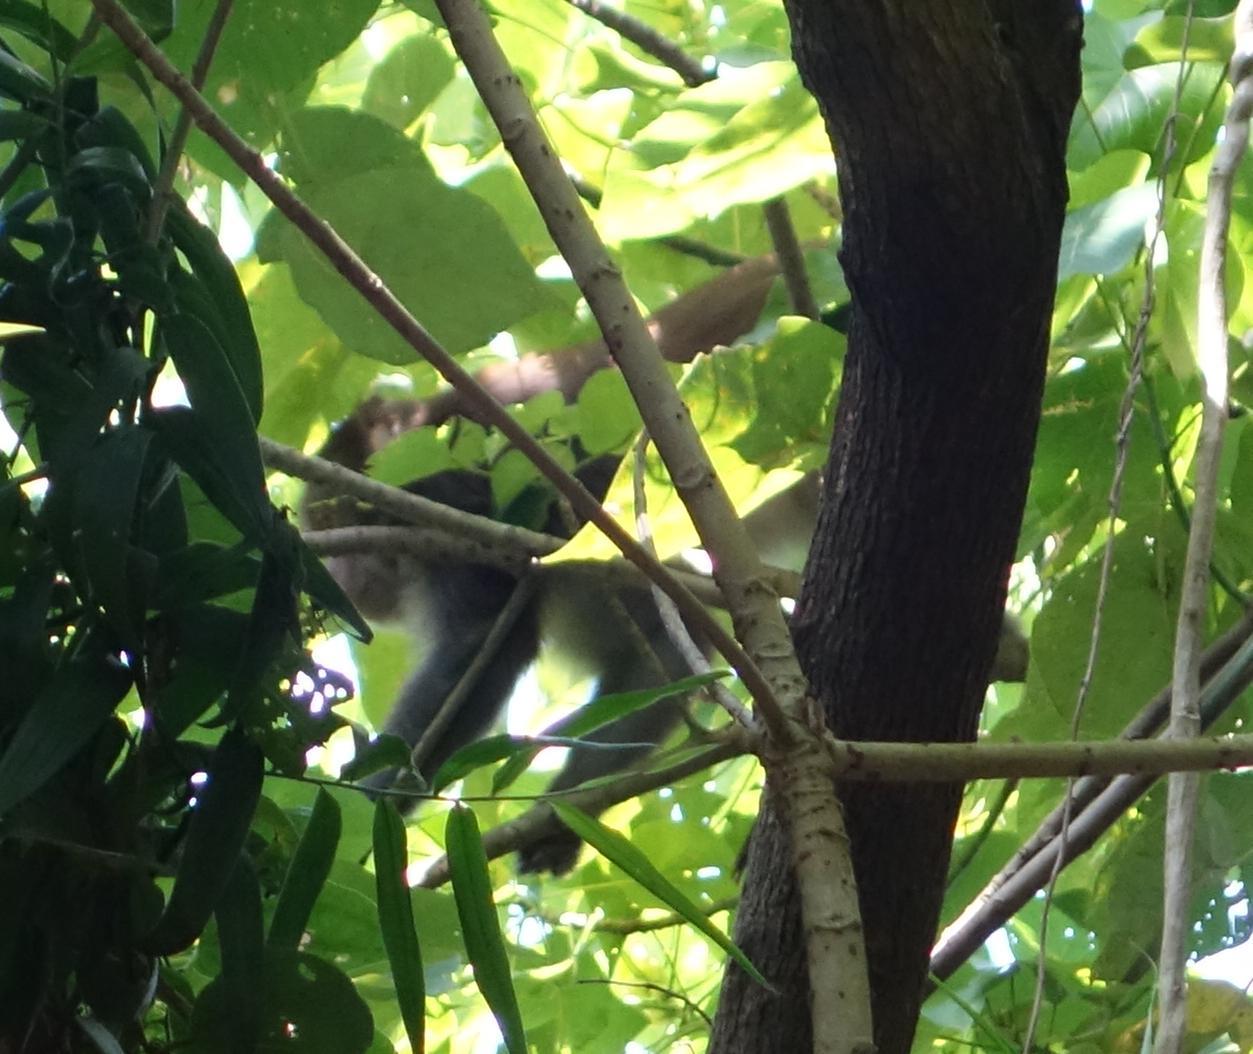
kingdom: Animalia
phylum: Chordata
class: Mammalia
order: Primates
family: Cercopithecidae
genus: Macaca
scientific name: Macaca cyclopis
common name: Formosan rock macaque
